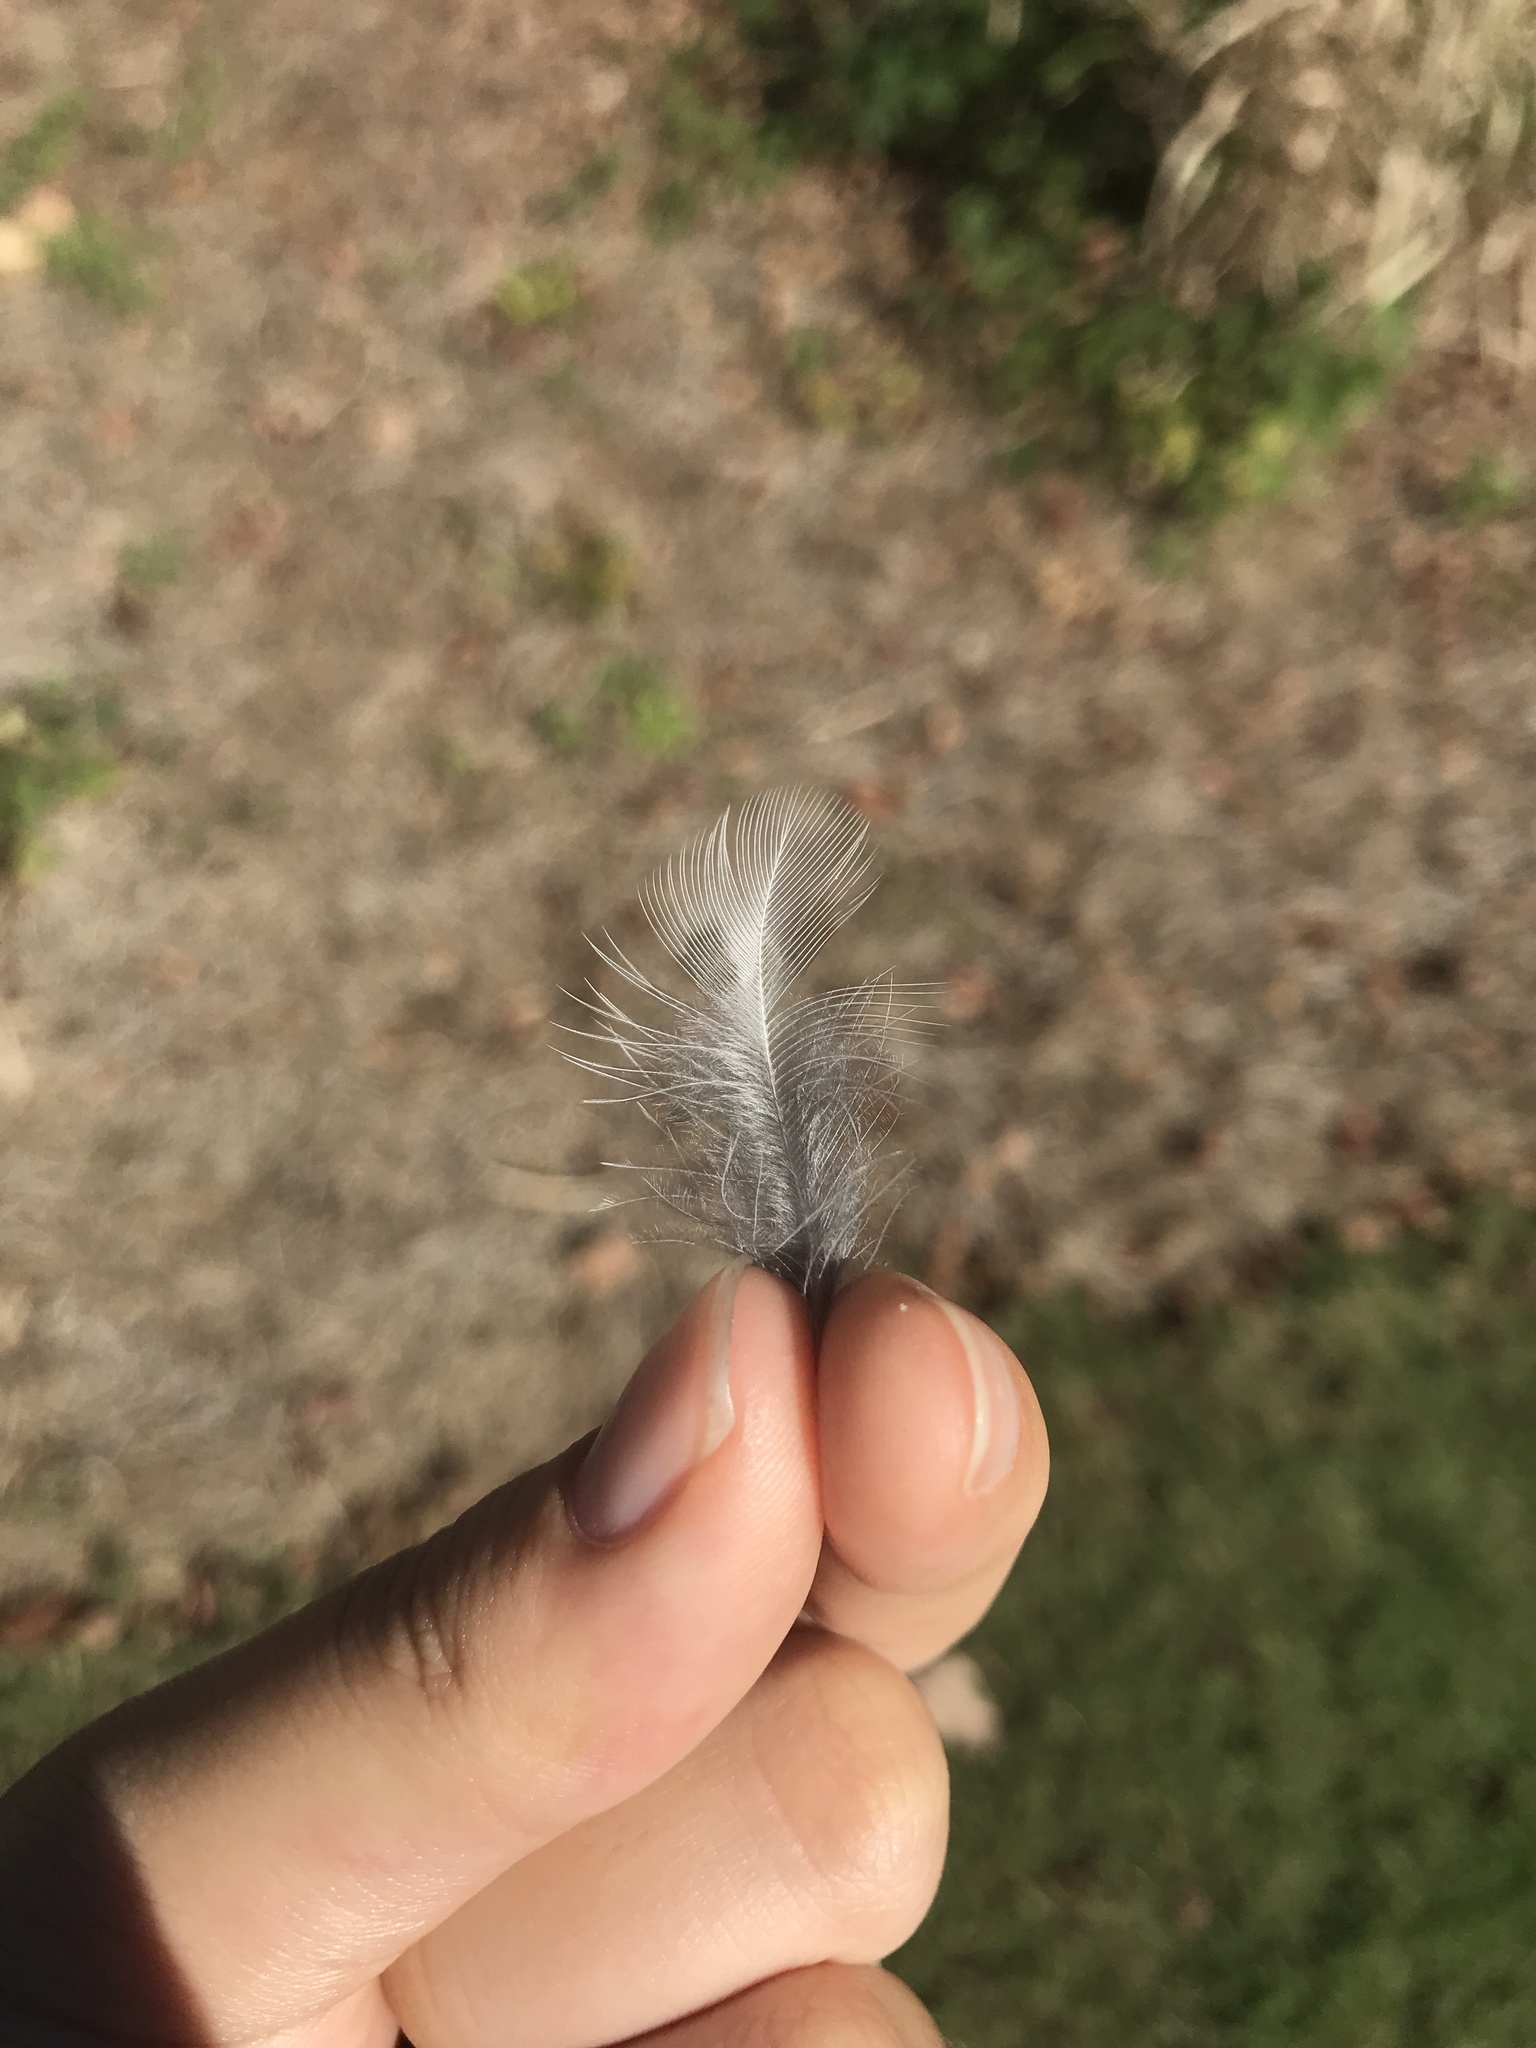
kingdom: Animalia
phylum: Chordata
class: Aves
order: Passeriformes
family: Turdidae
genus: Turdus
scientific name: Turdus migratorius
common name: American robin
